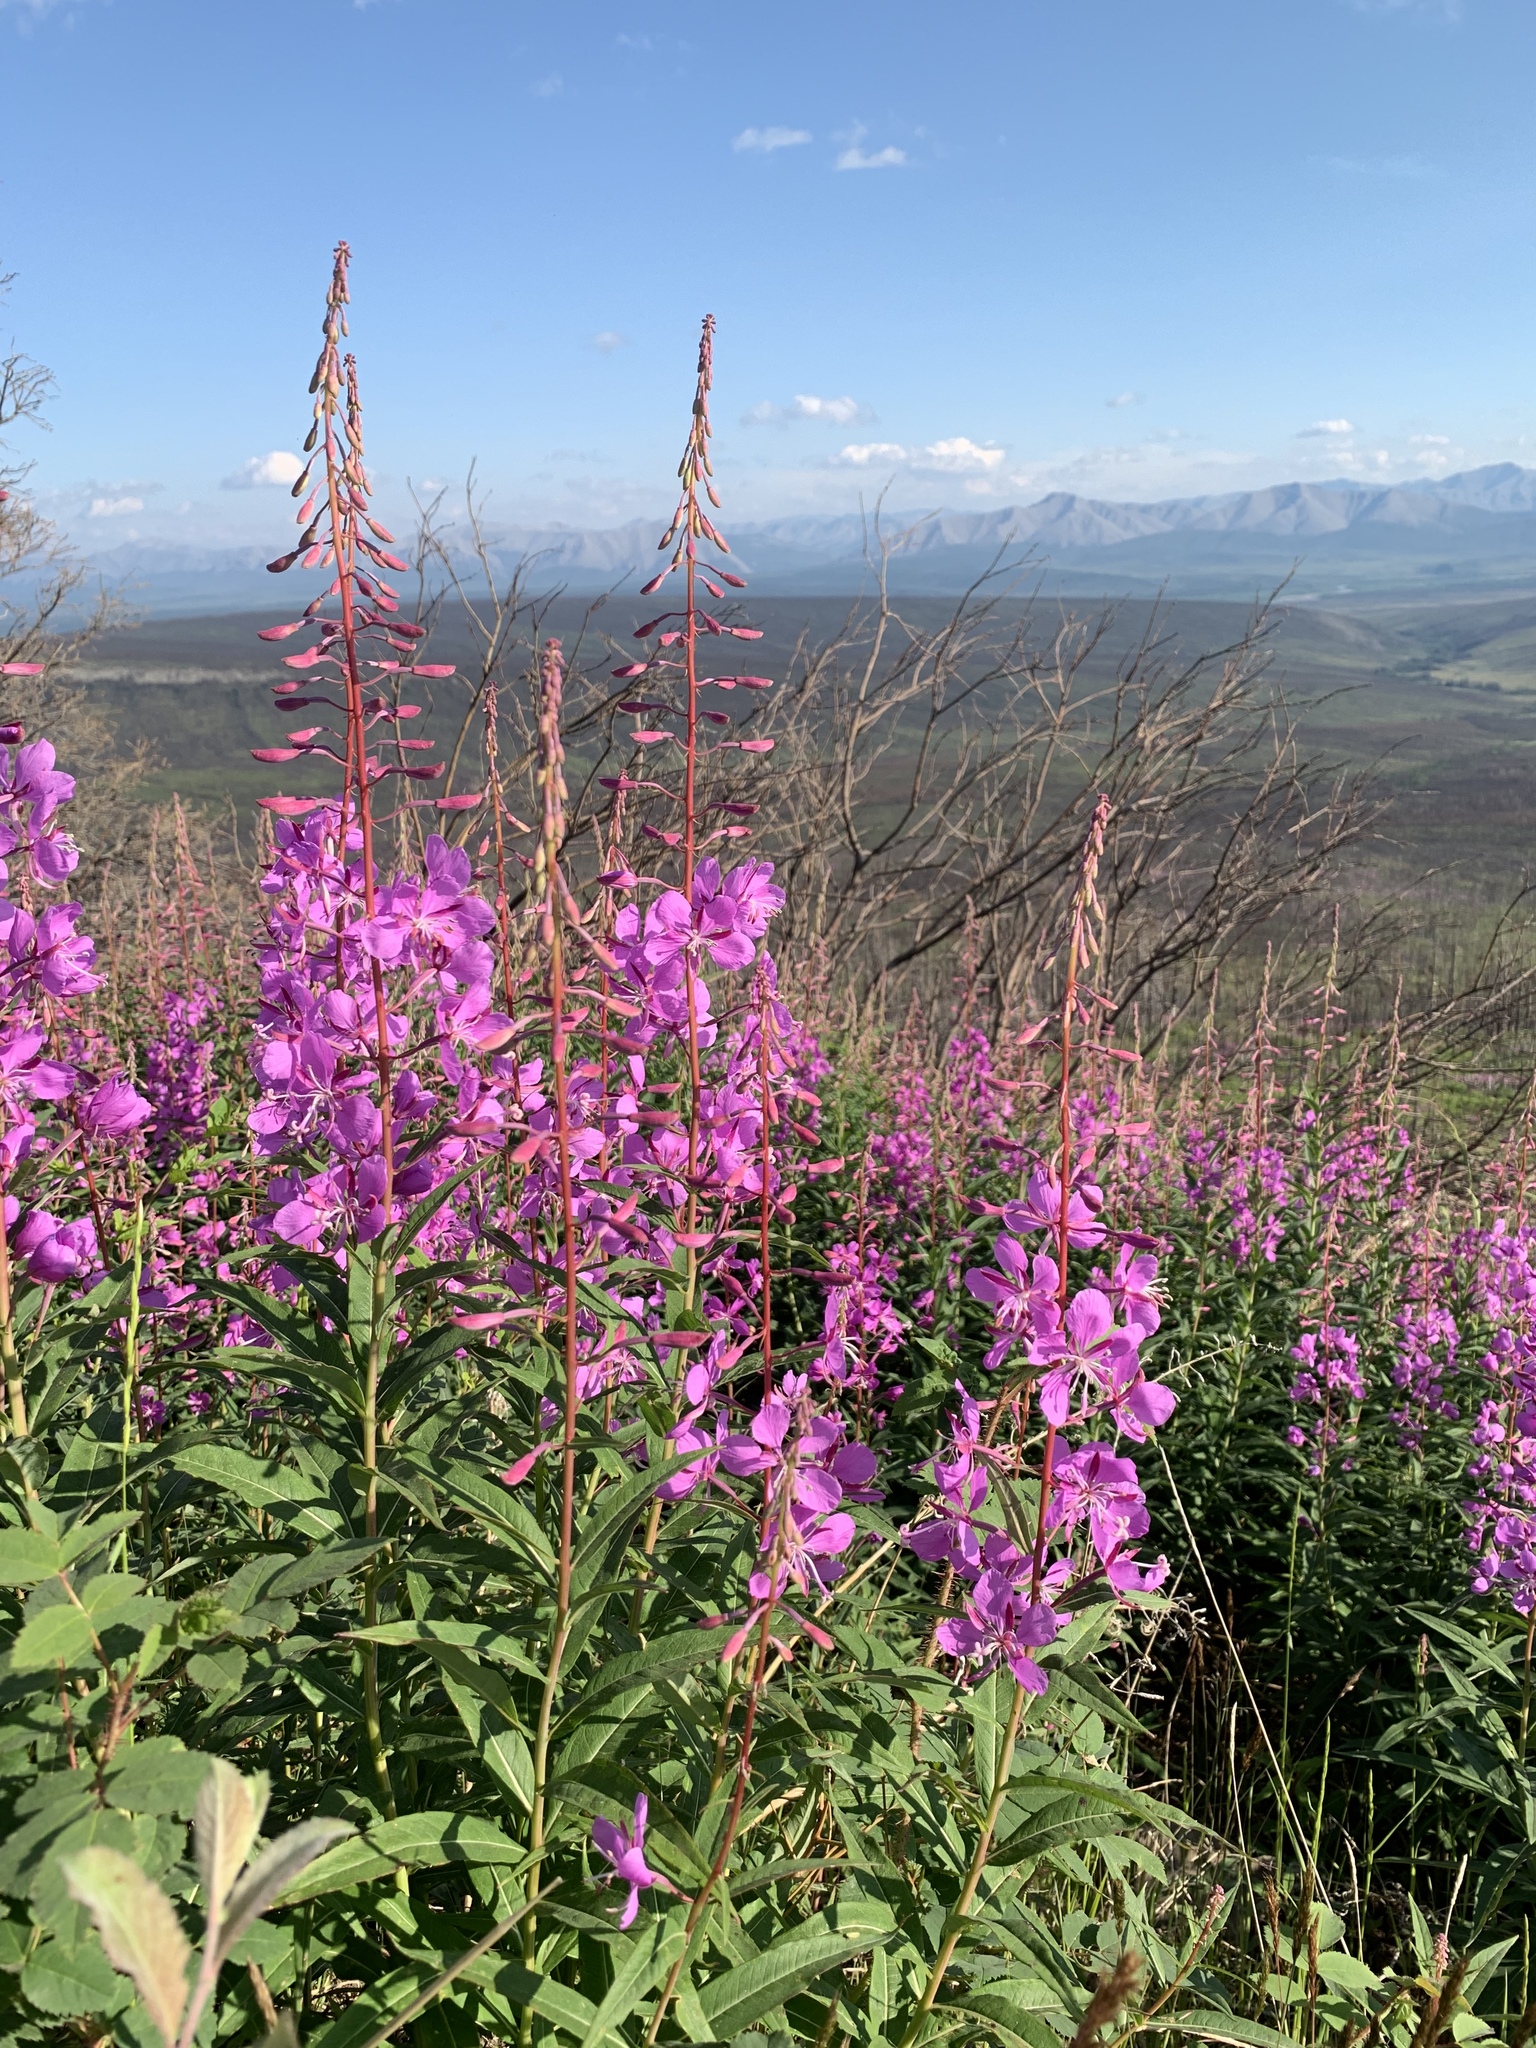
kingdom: Plantae
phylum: Tracheophyta
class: Magnoliopsida
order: Myrtales
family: Onagraceae
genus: Chamaenerion
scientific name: Chamaenerion angustifolium
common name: Fireweed
